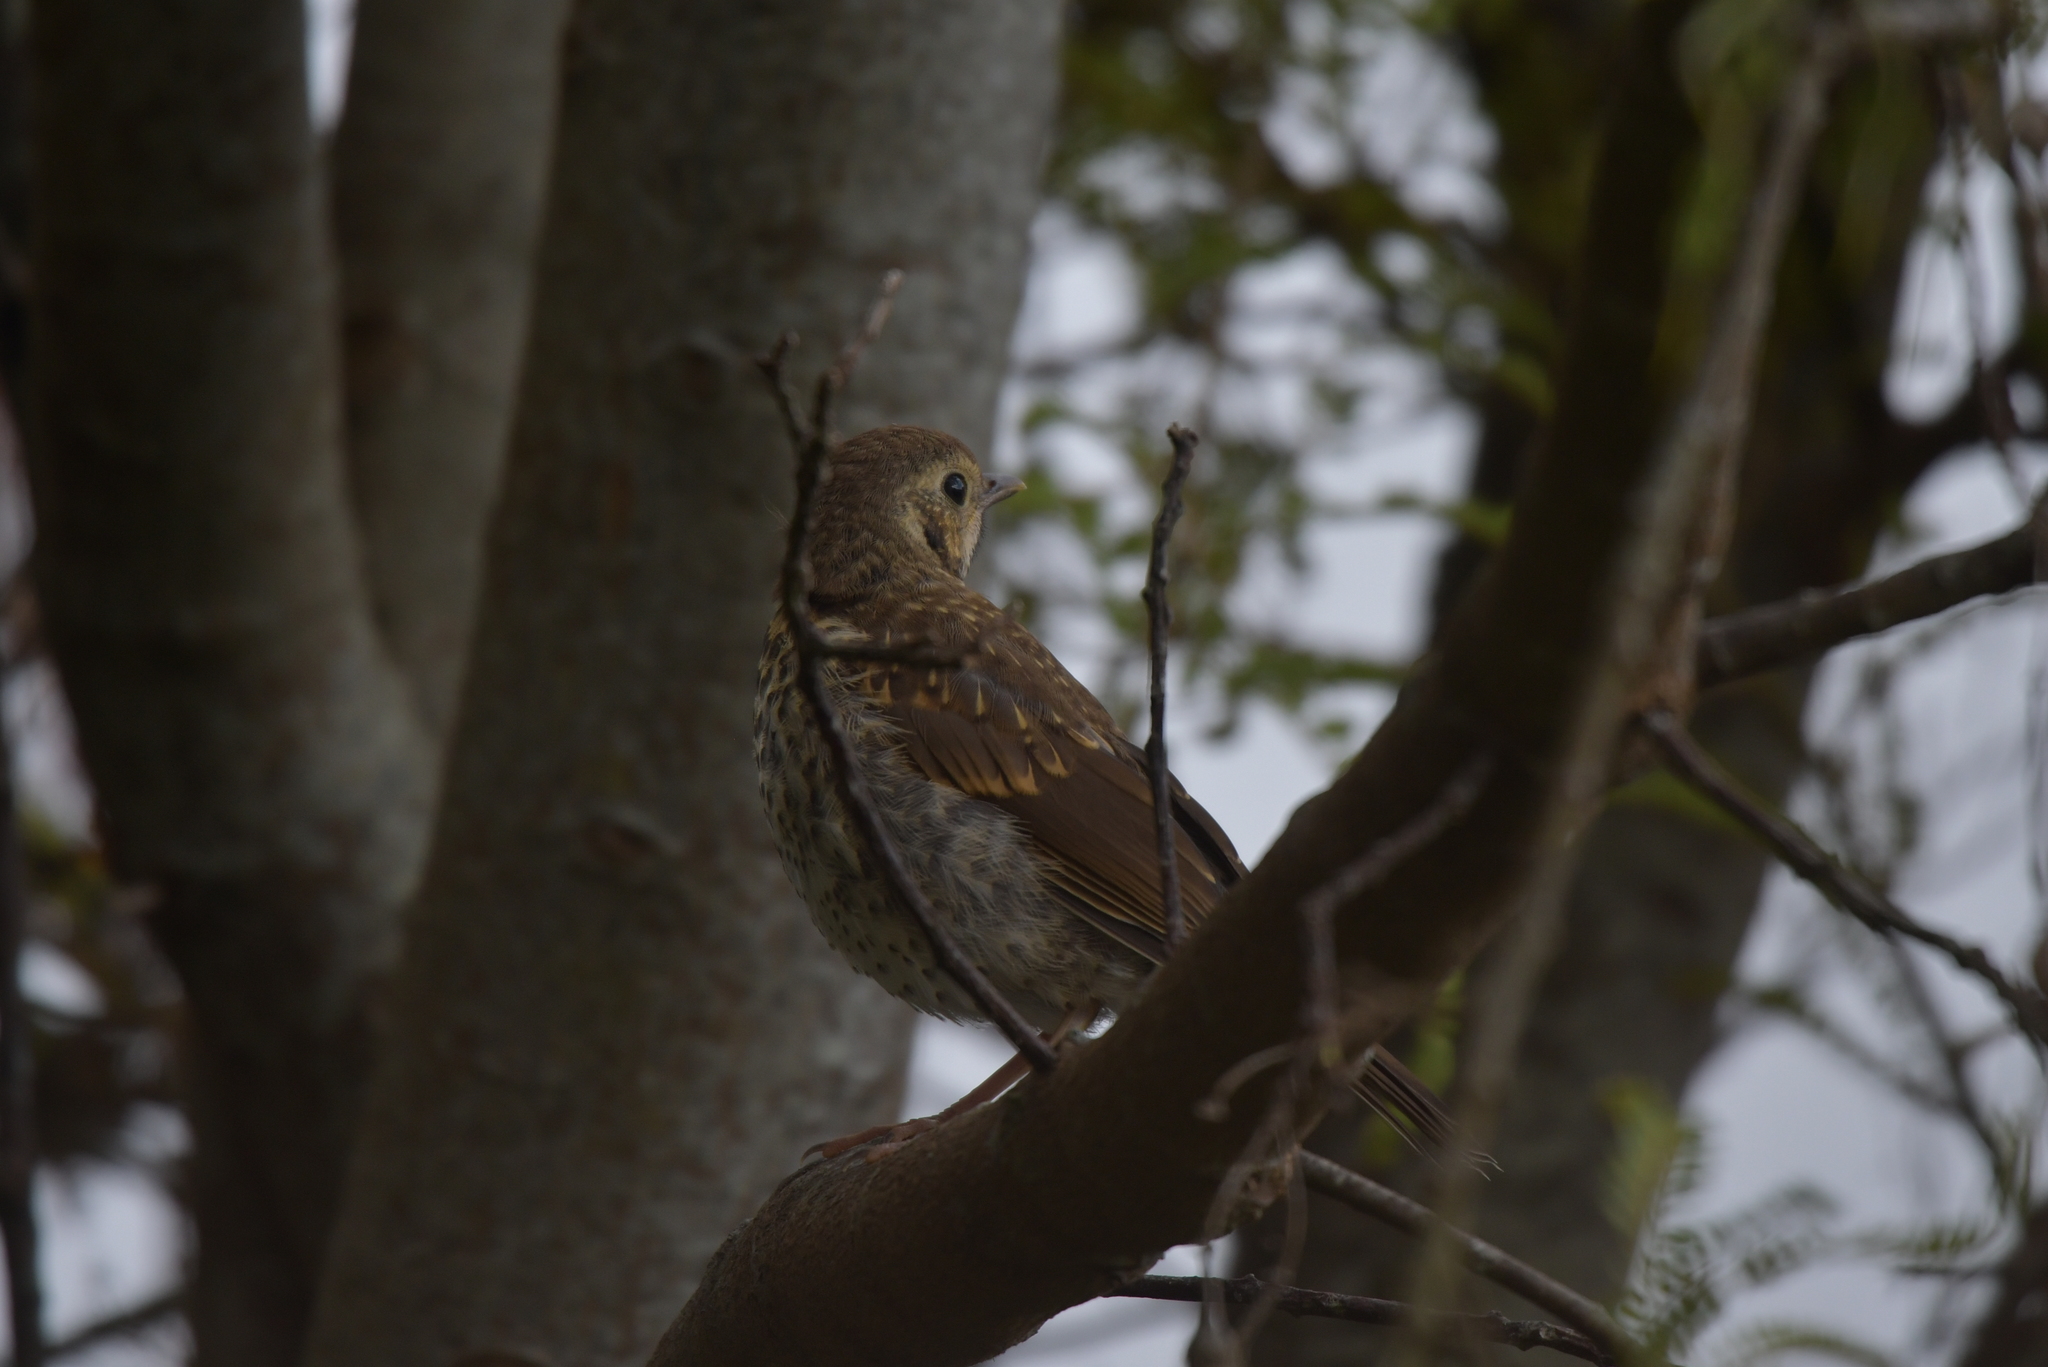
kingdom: Animalia
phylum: Chordata
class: Aves
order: Passeriformes
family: Turdidae
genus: Turdus
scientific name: Turdus philomelos
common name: Song thrush
